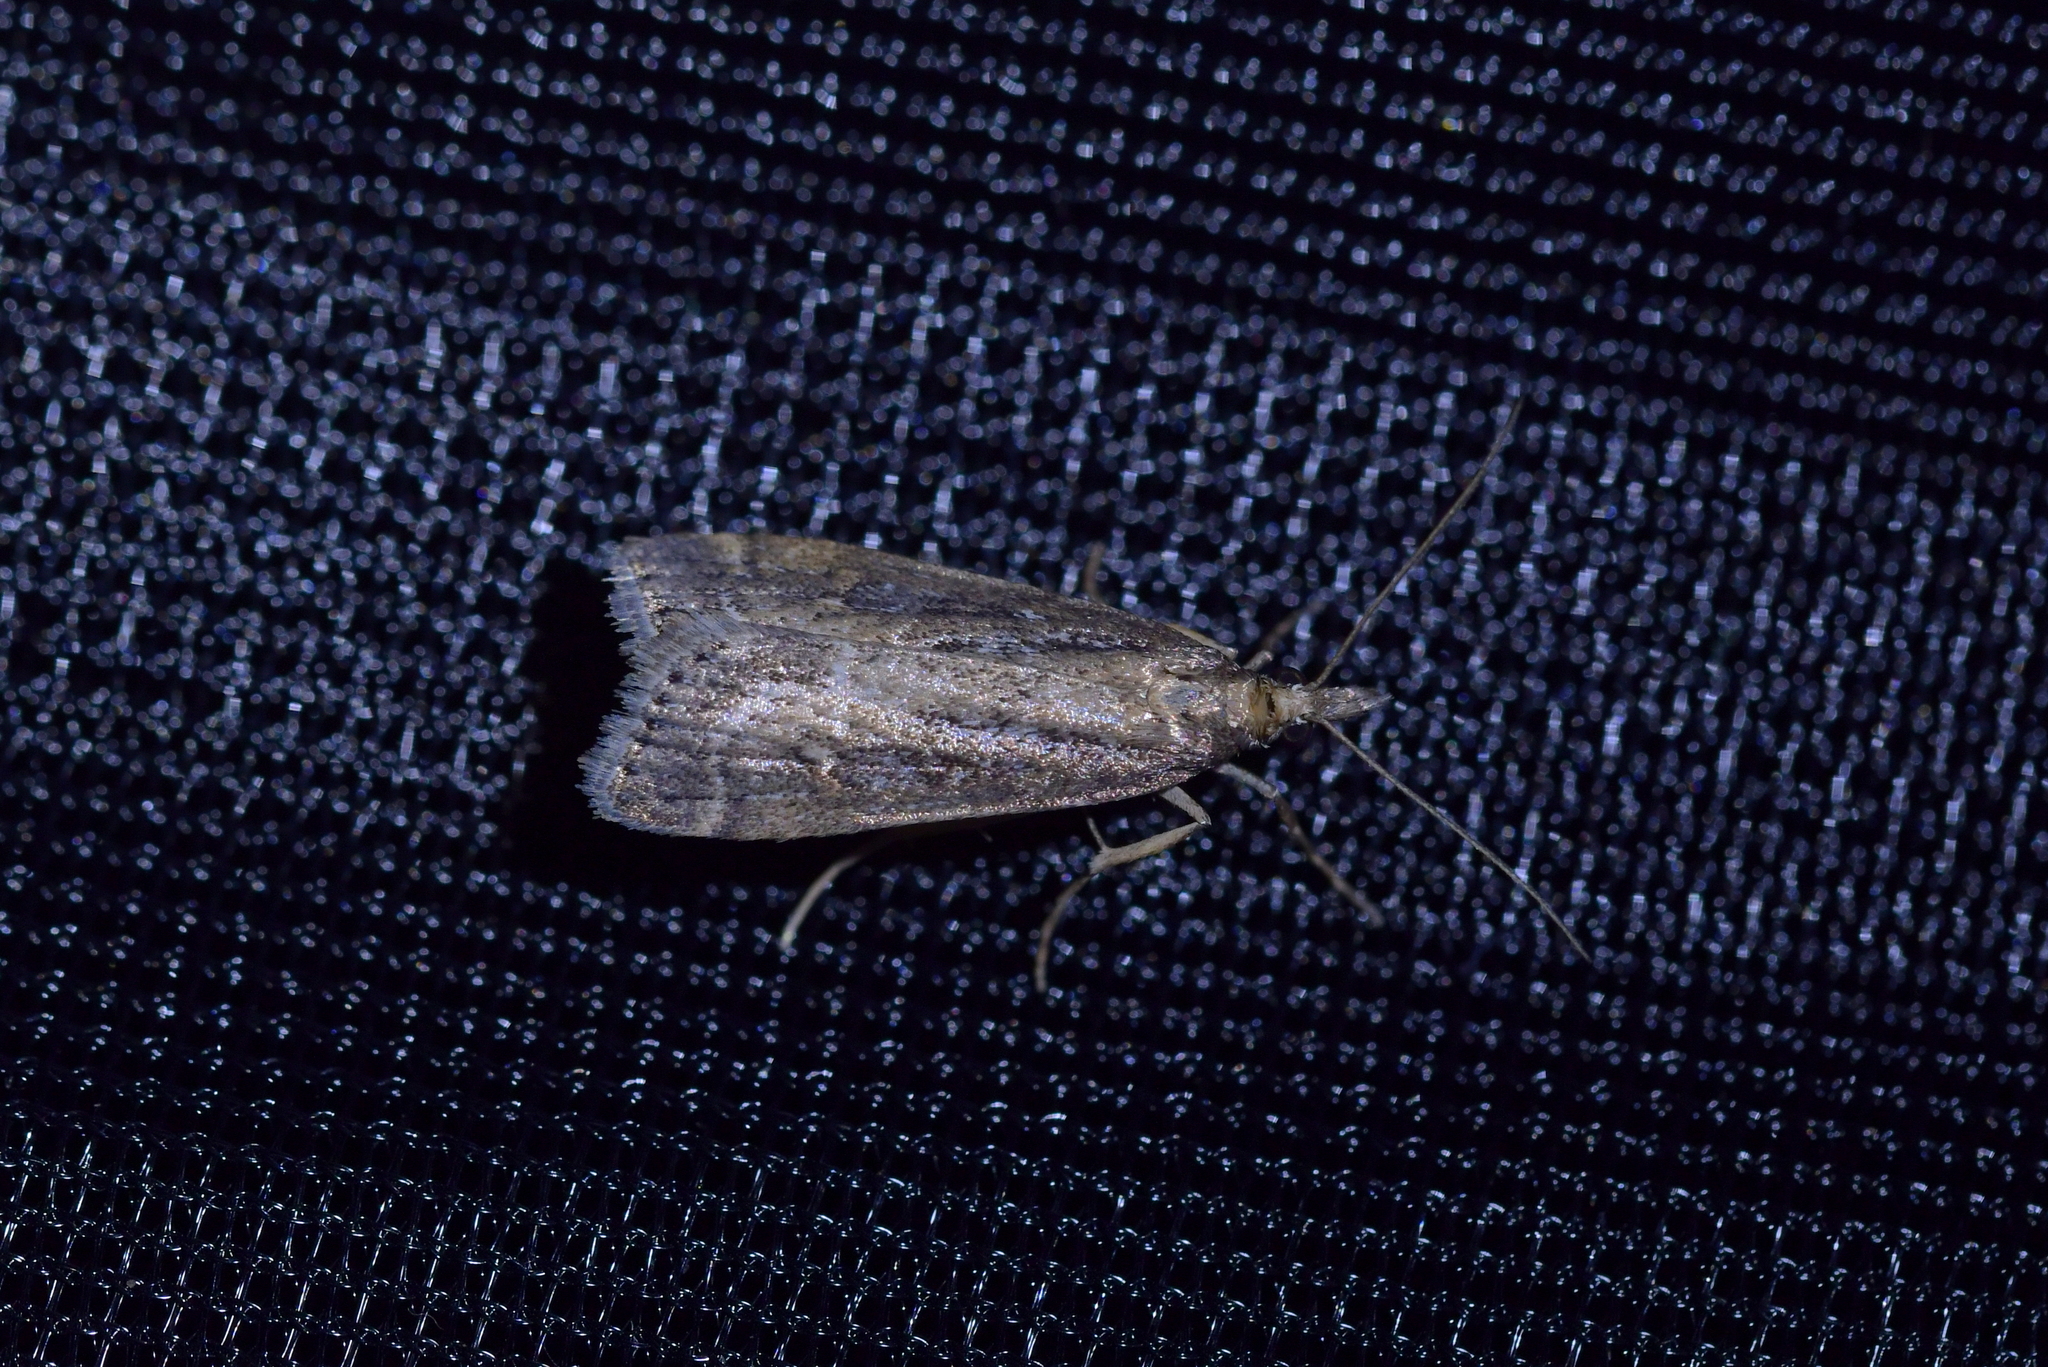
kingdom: Animalia
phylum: Arthropoda
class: Insecta
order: Lepidoptera
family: Crambidae
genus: Eudonia
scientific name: Eudonia octophora
